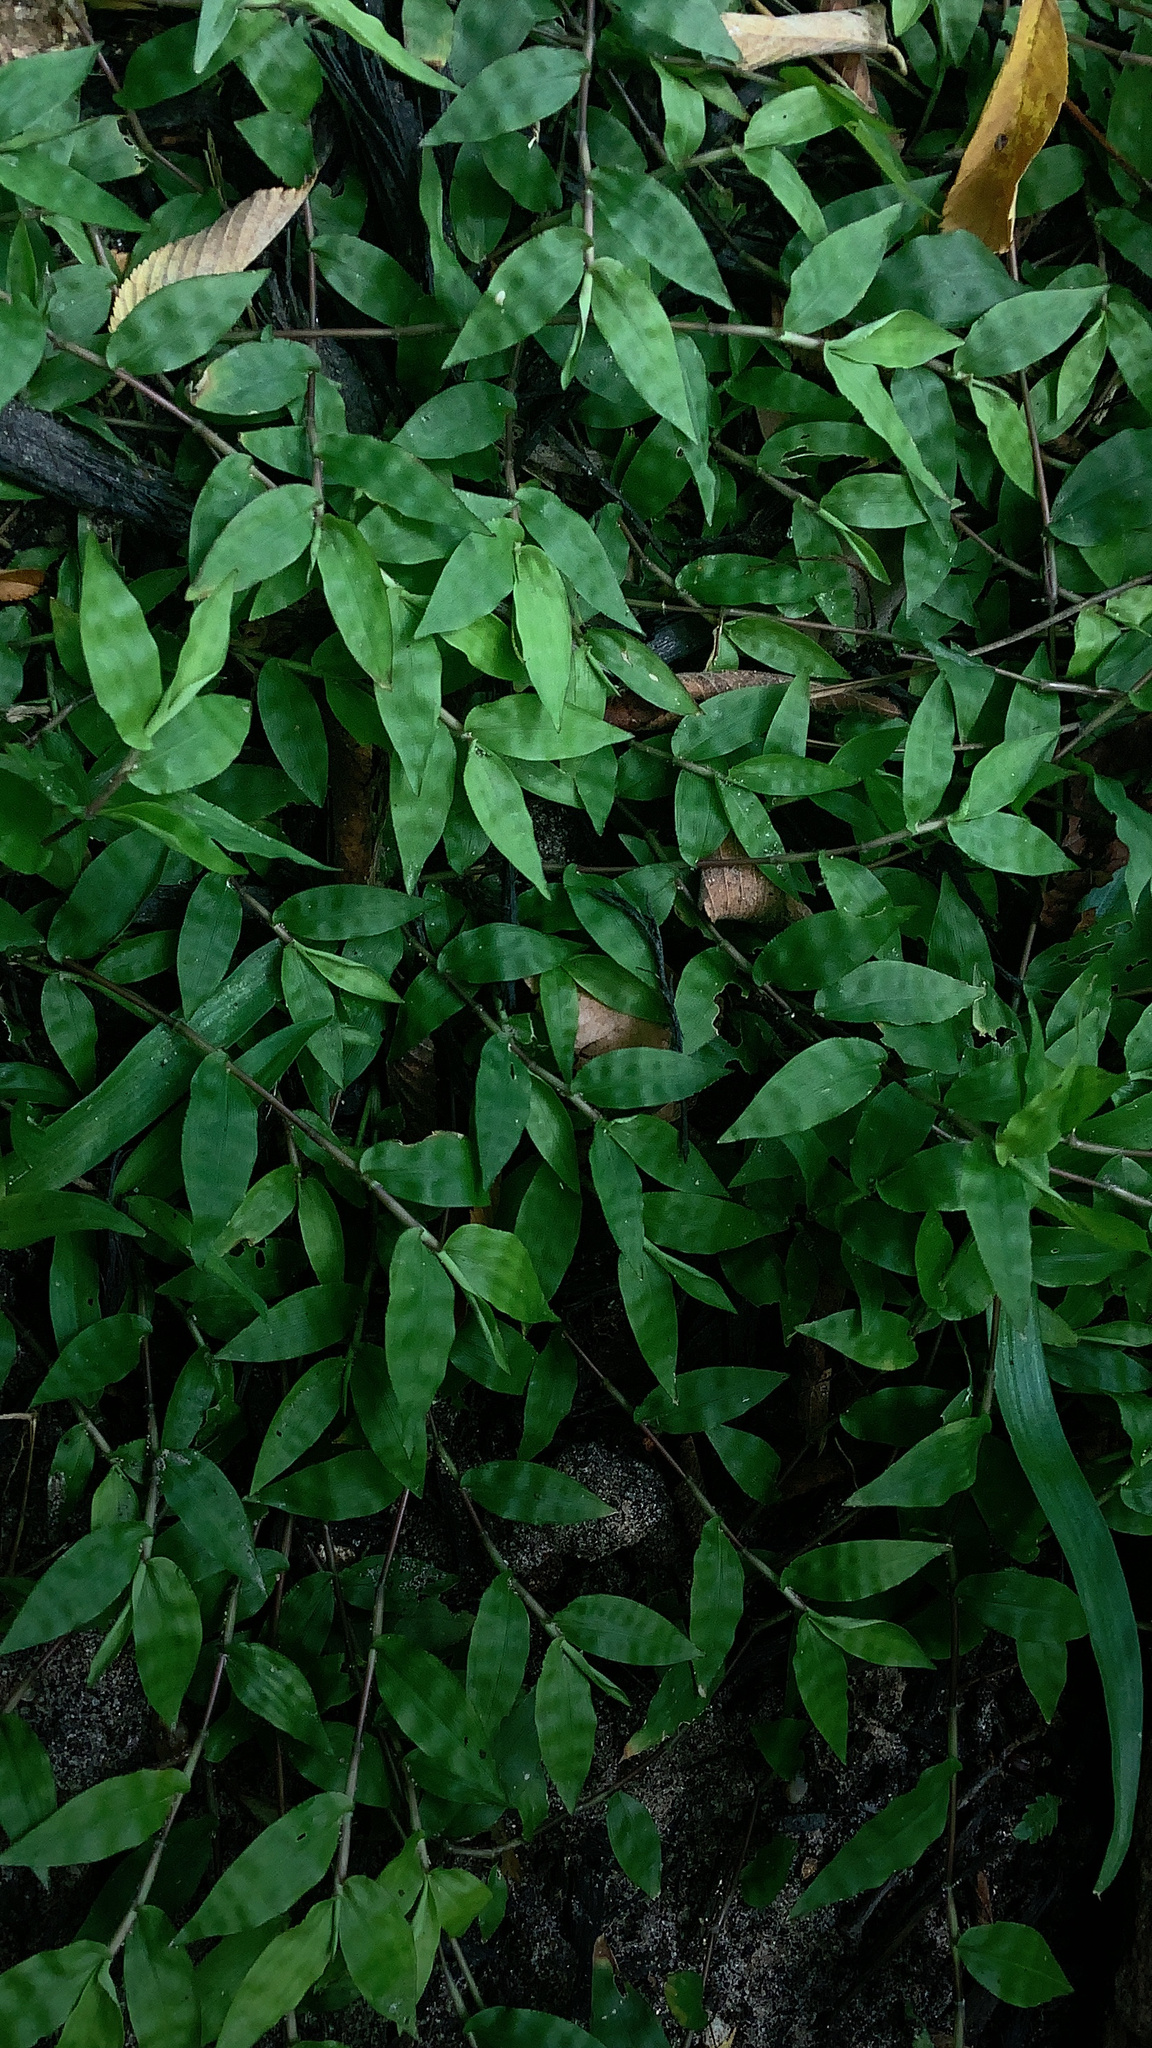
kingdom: Plantae
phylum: Tracheophyta
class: Liliopsida
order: Poales
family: Poaceae
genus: Oplismenus
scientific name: Oplismenus hirtellus
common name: Basketgrass
